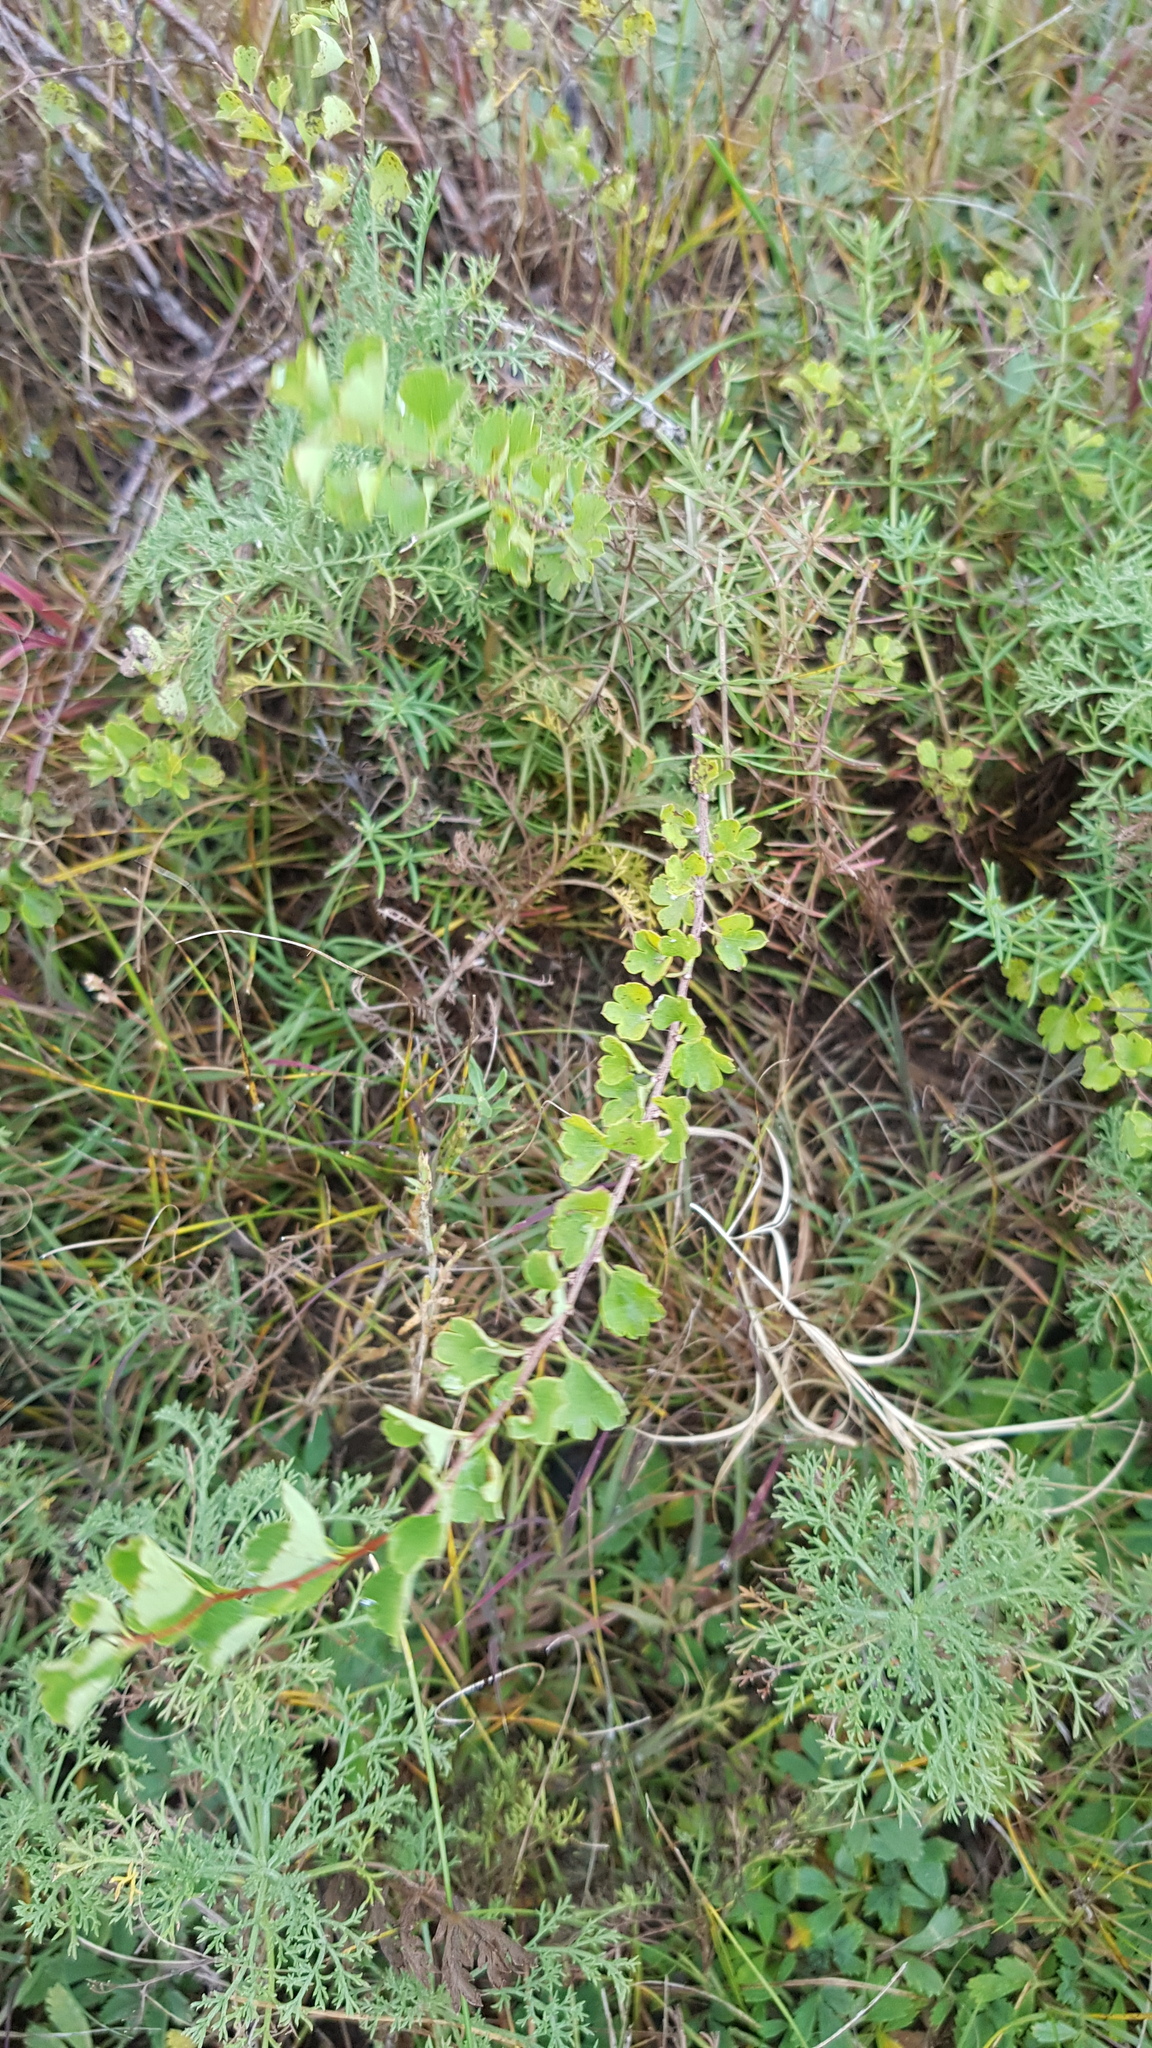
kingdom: Plantae
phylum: Tracheophyta
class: Magnoliopsida
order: Rosales
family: Rosaceae
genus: Spiraea
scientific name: Spiraea aquilegifolia
